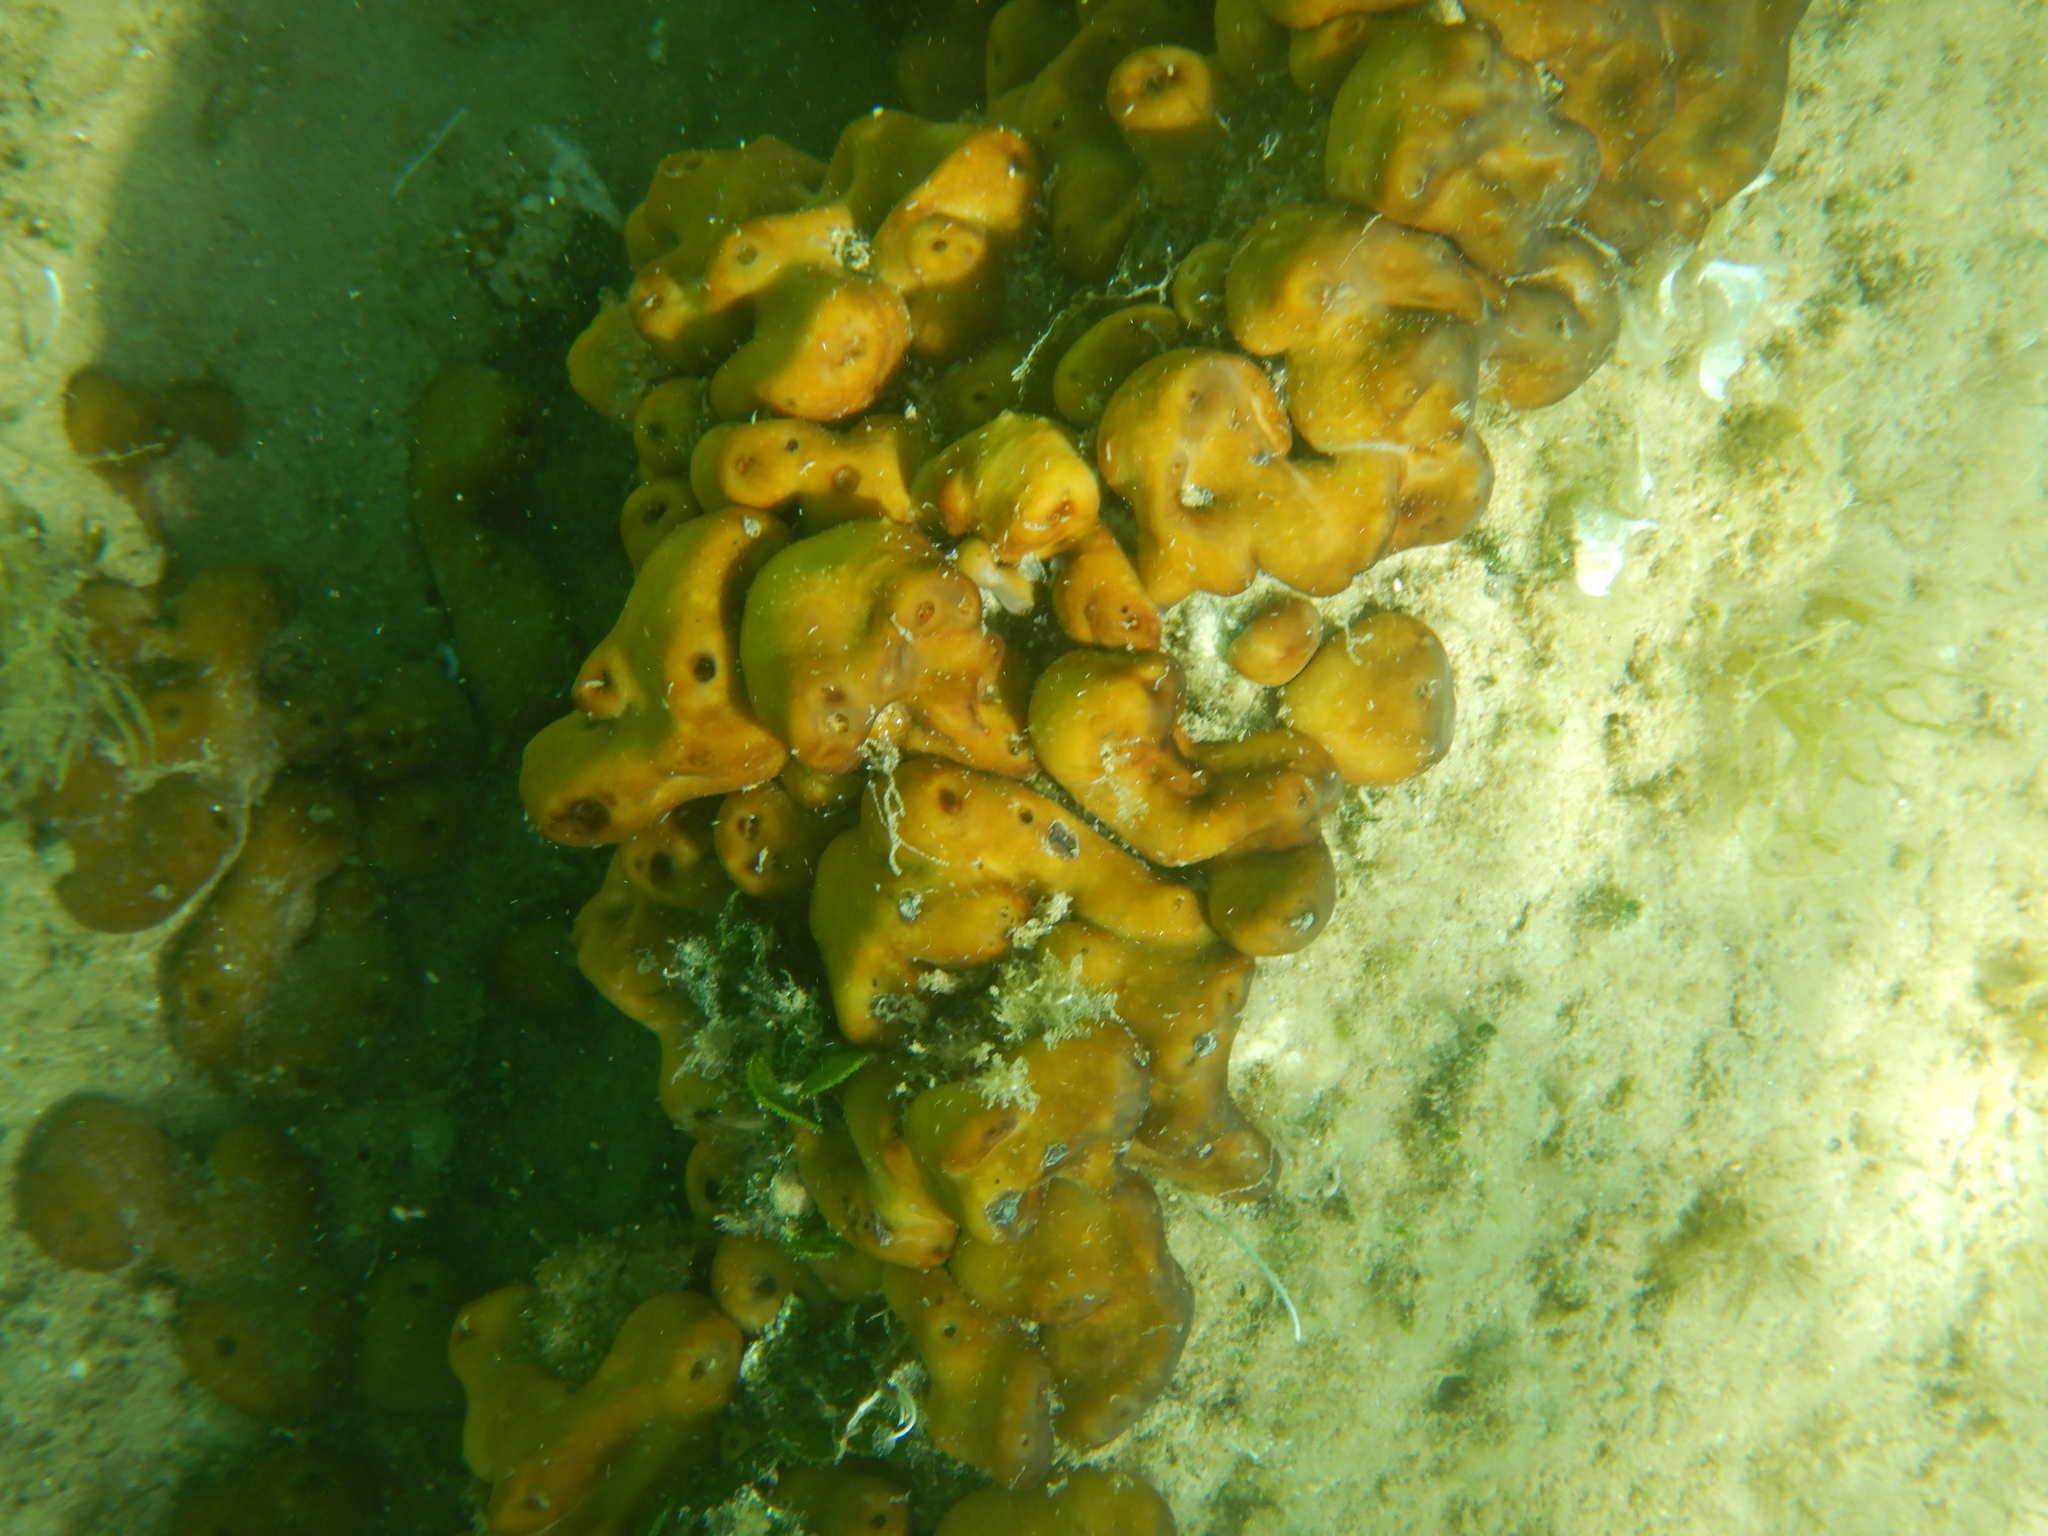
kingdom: Animalia
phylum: Porifera
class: Demospongiae
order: Chondrillida
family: Chondrillidae
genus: Chondrilla
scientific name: Chondrilla nucula
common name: Chicken liver sponge
